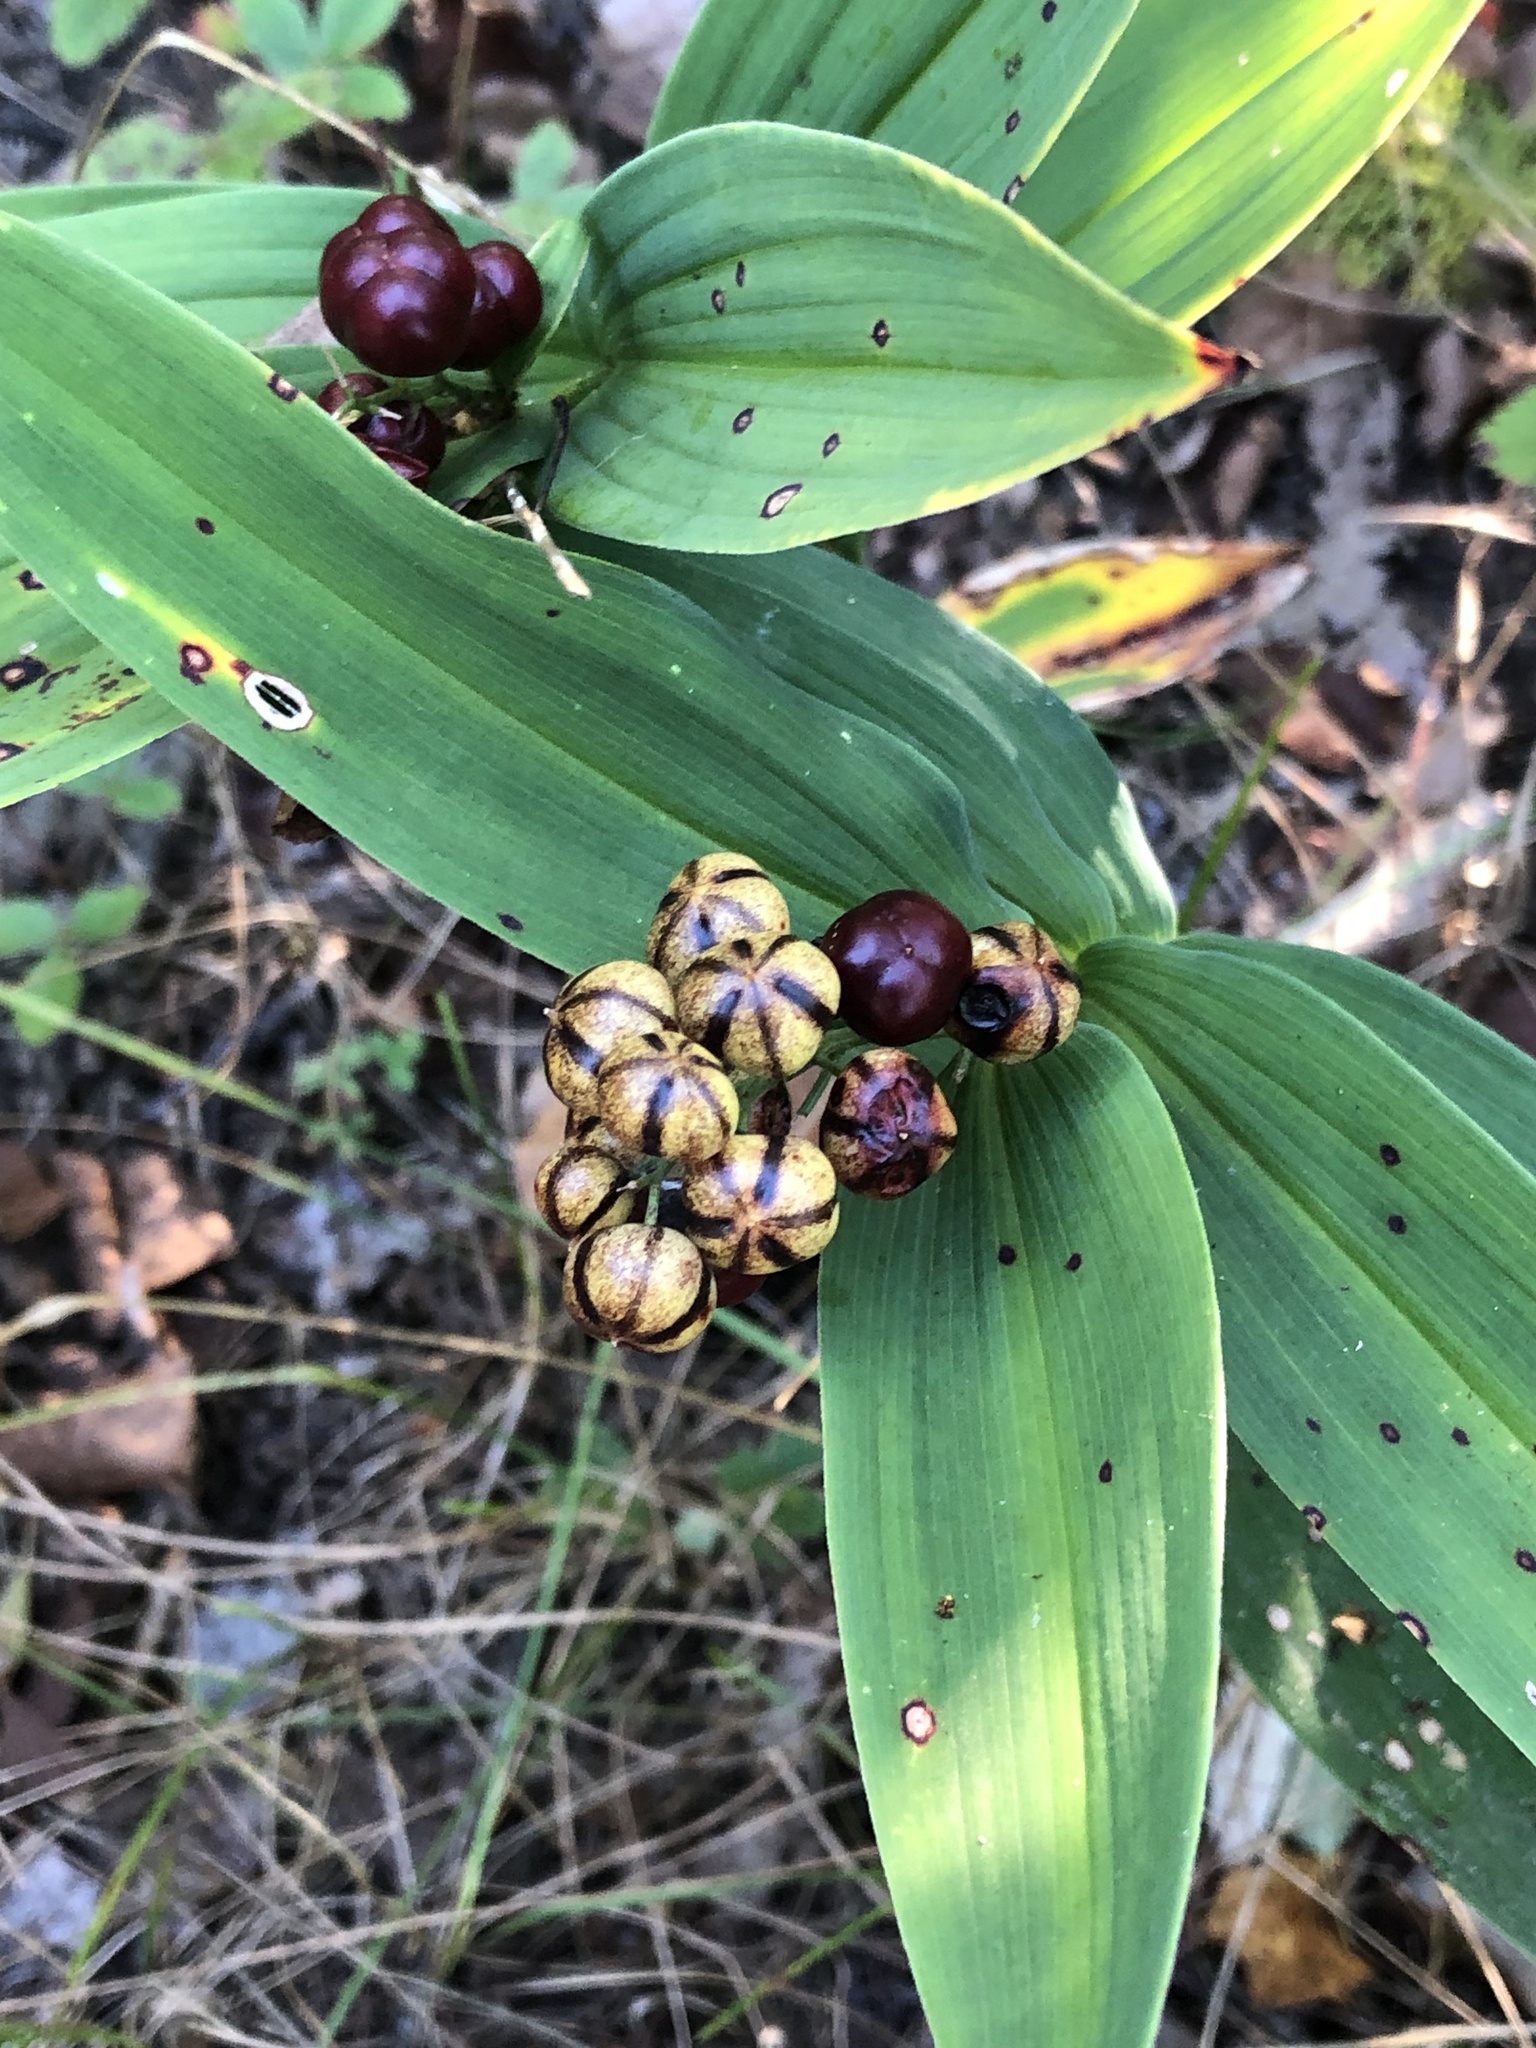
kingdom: Plantae
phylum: Tracheophyta
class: Liliopsida
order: Asparagales
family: Asparagaceae
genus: Maianthemum
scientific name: Maianthemum stellatum
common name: Little false solomon's seal
